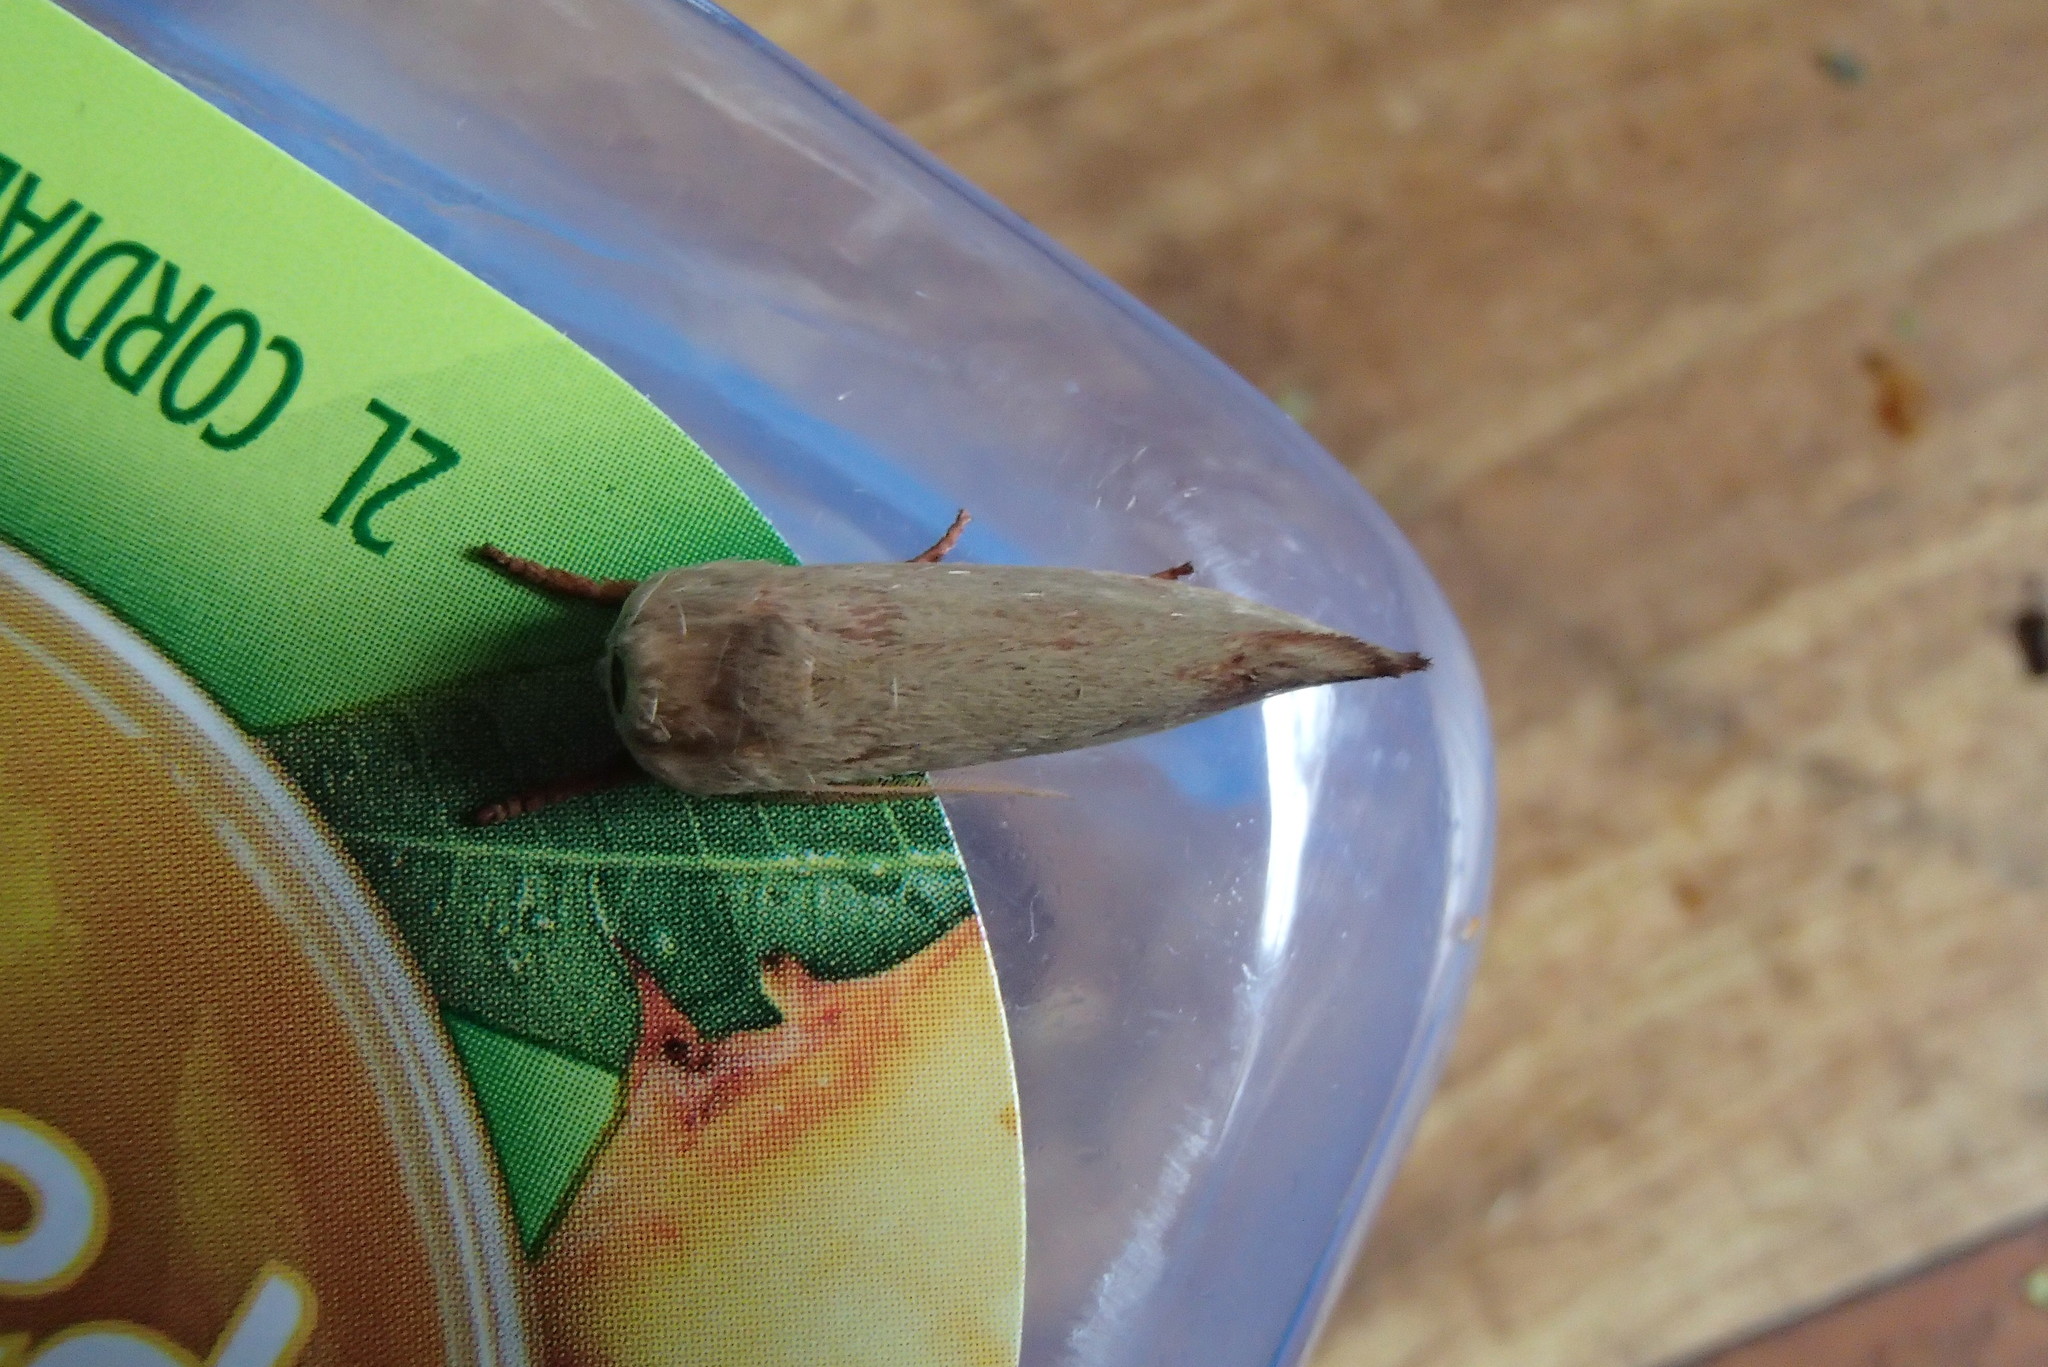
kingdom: Animalia
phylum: Arthropoda
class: Insecta
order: Lepidoptera
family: Xyloryctidae
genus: Cryptophasa
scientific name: Cryptophasa rubescens
